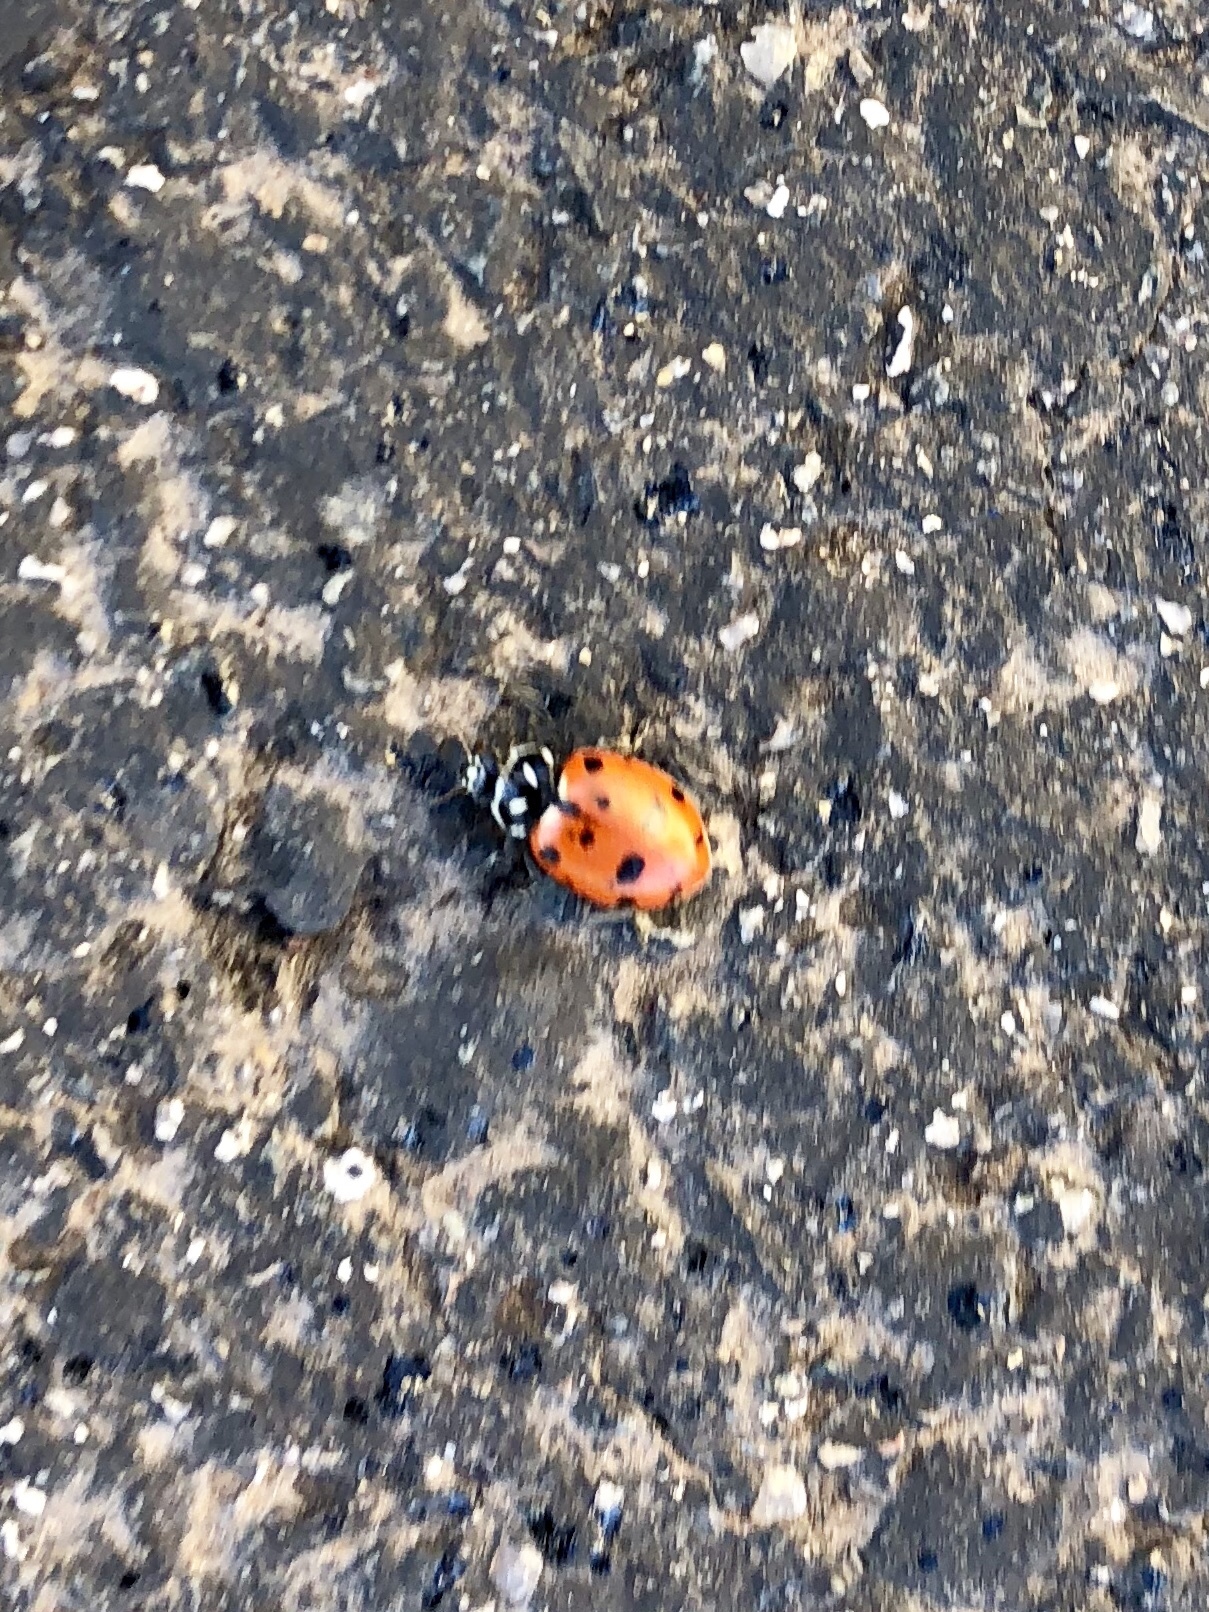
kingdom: Animalia
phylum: Arthropoda
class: Insecta
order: Coleoptera
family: Coccinellidae
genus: Hippodamia
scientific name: Hippodamia convergens
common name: Convergent lady beetle
